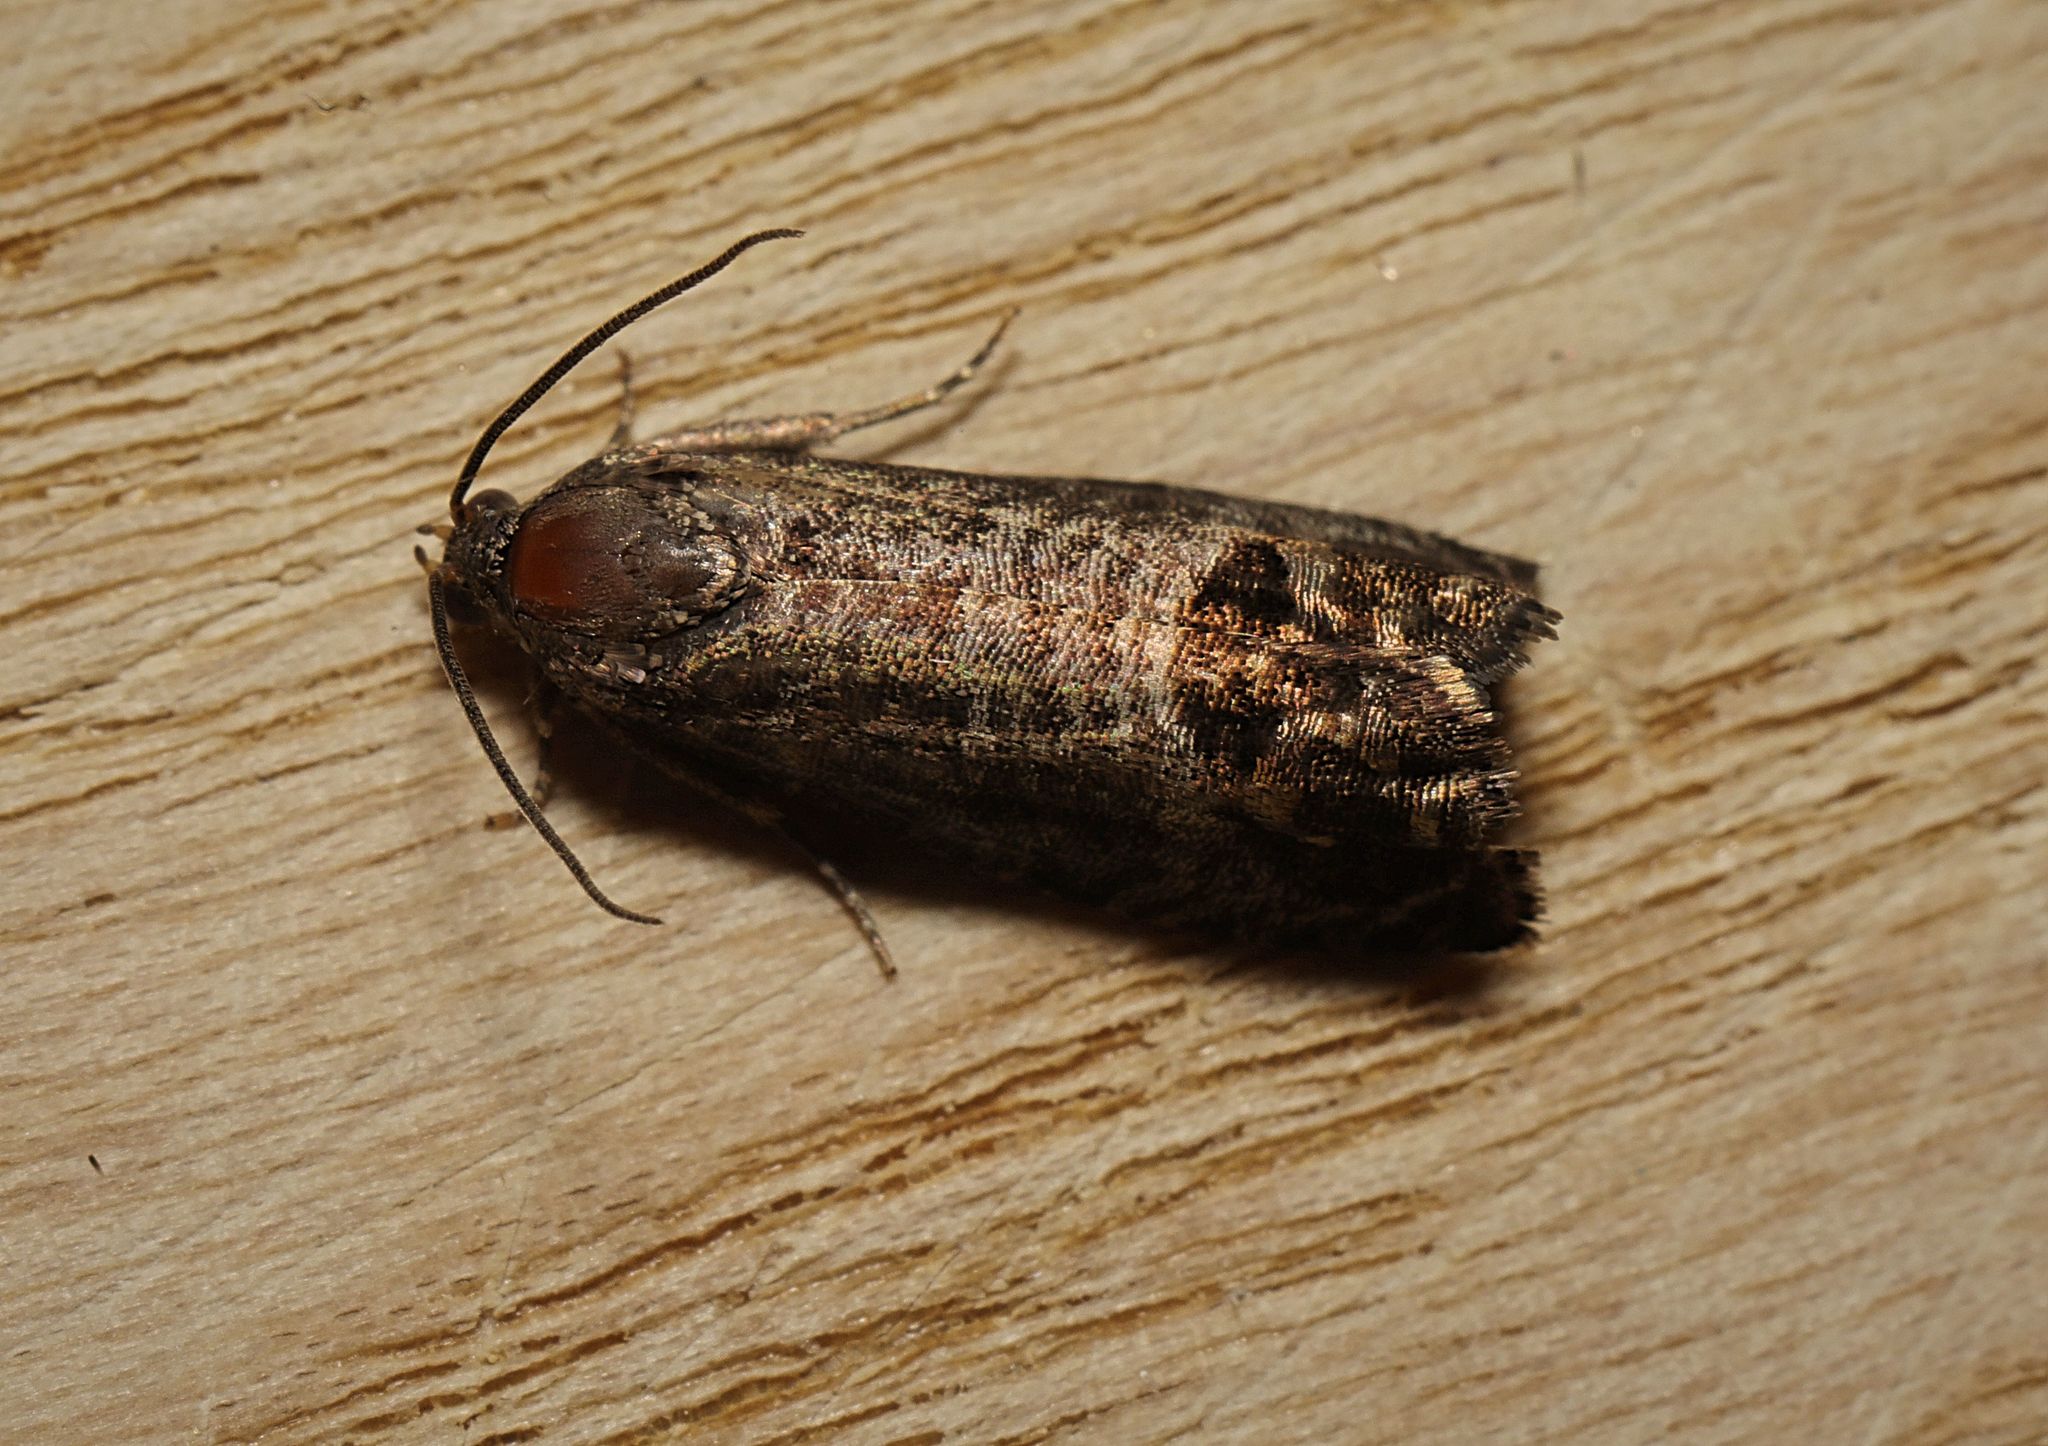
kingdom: Animalia
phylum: Arthropoda
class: Insecta
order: Lepidoptera
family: Tortricidae
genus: Cydia
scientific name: Cydia pomonella
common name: Codling moth
